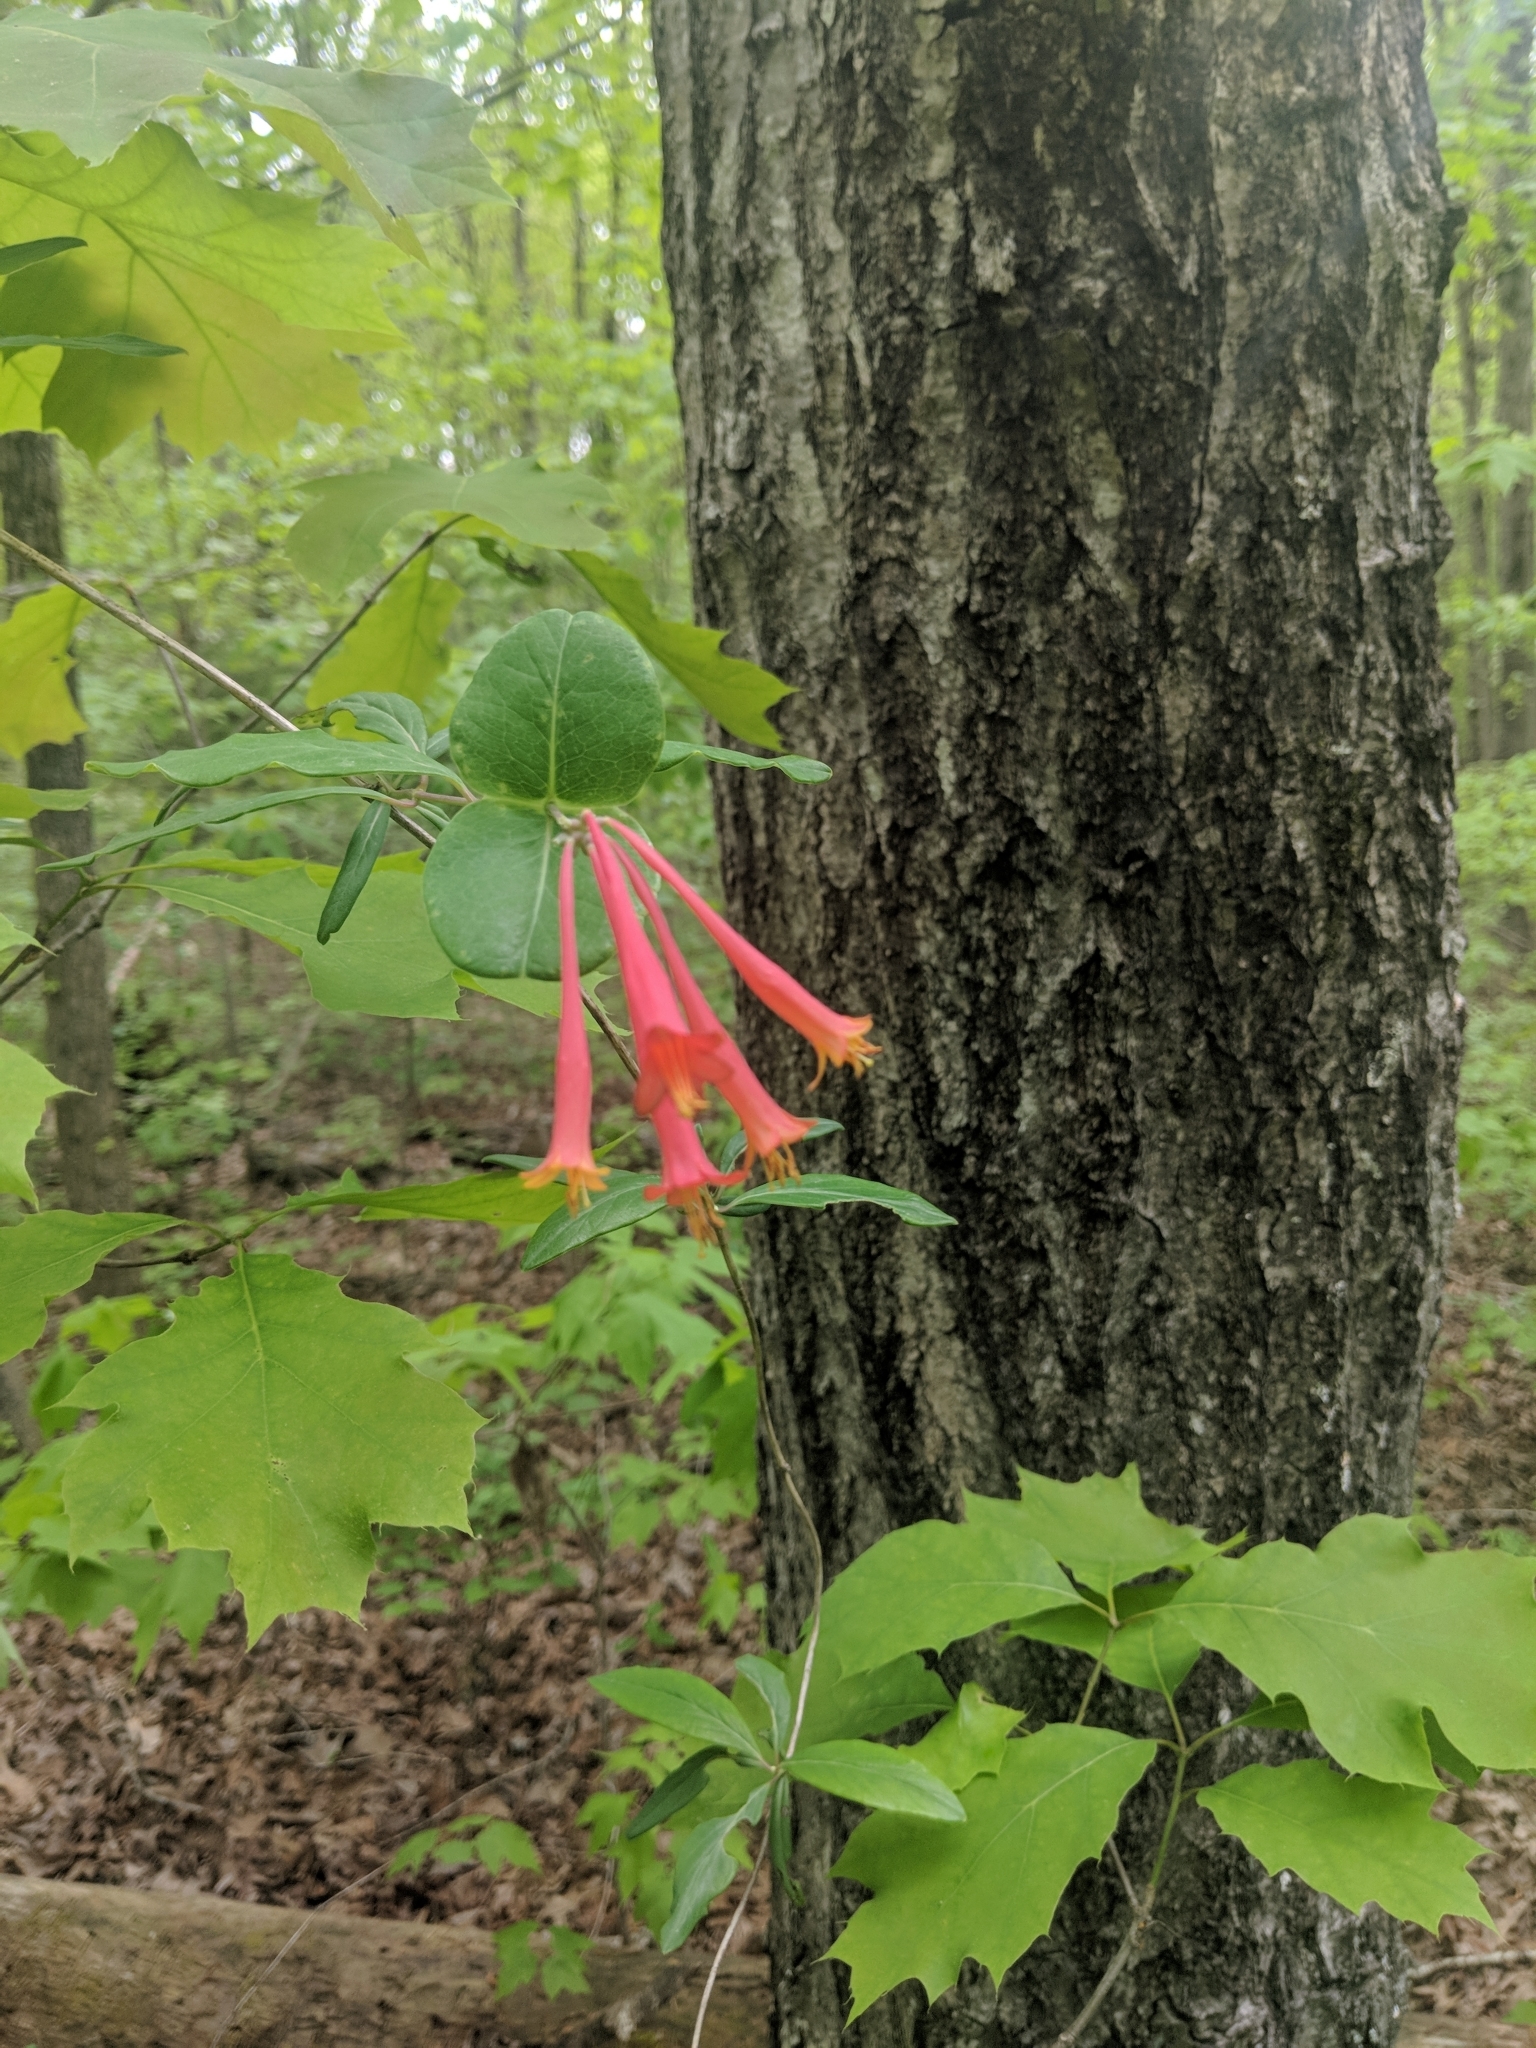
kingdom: Plantae
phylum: Tracheophyta
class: Magnoliopsida
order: Dipsacales
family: Caprifoliaceae
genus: Lonicera
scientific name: Lonicera sempervirens
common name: Coral honeysuckle
